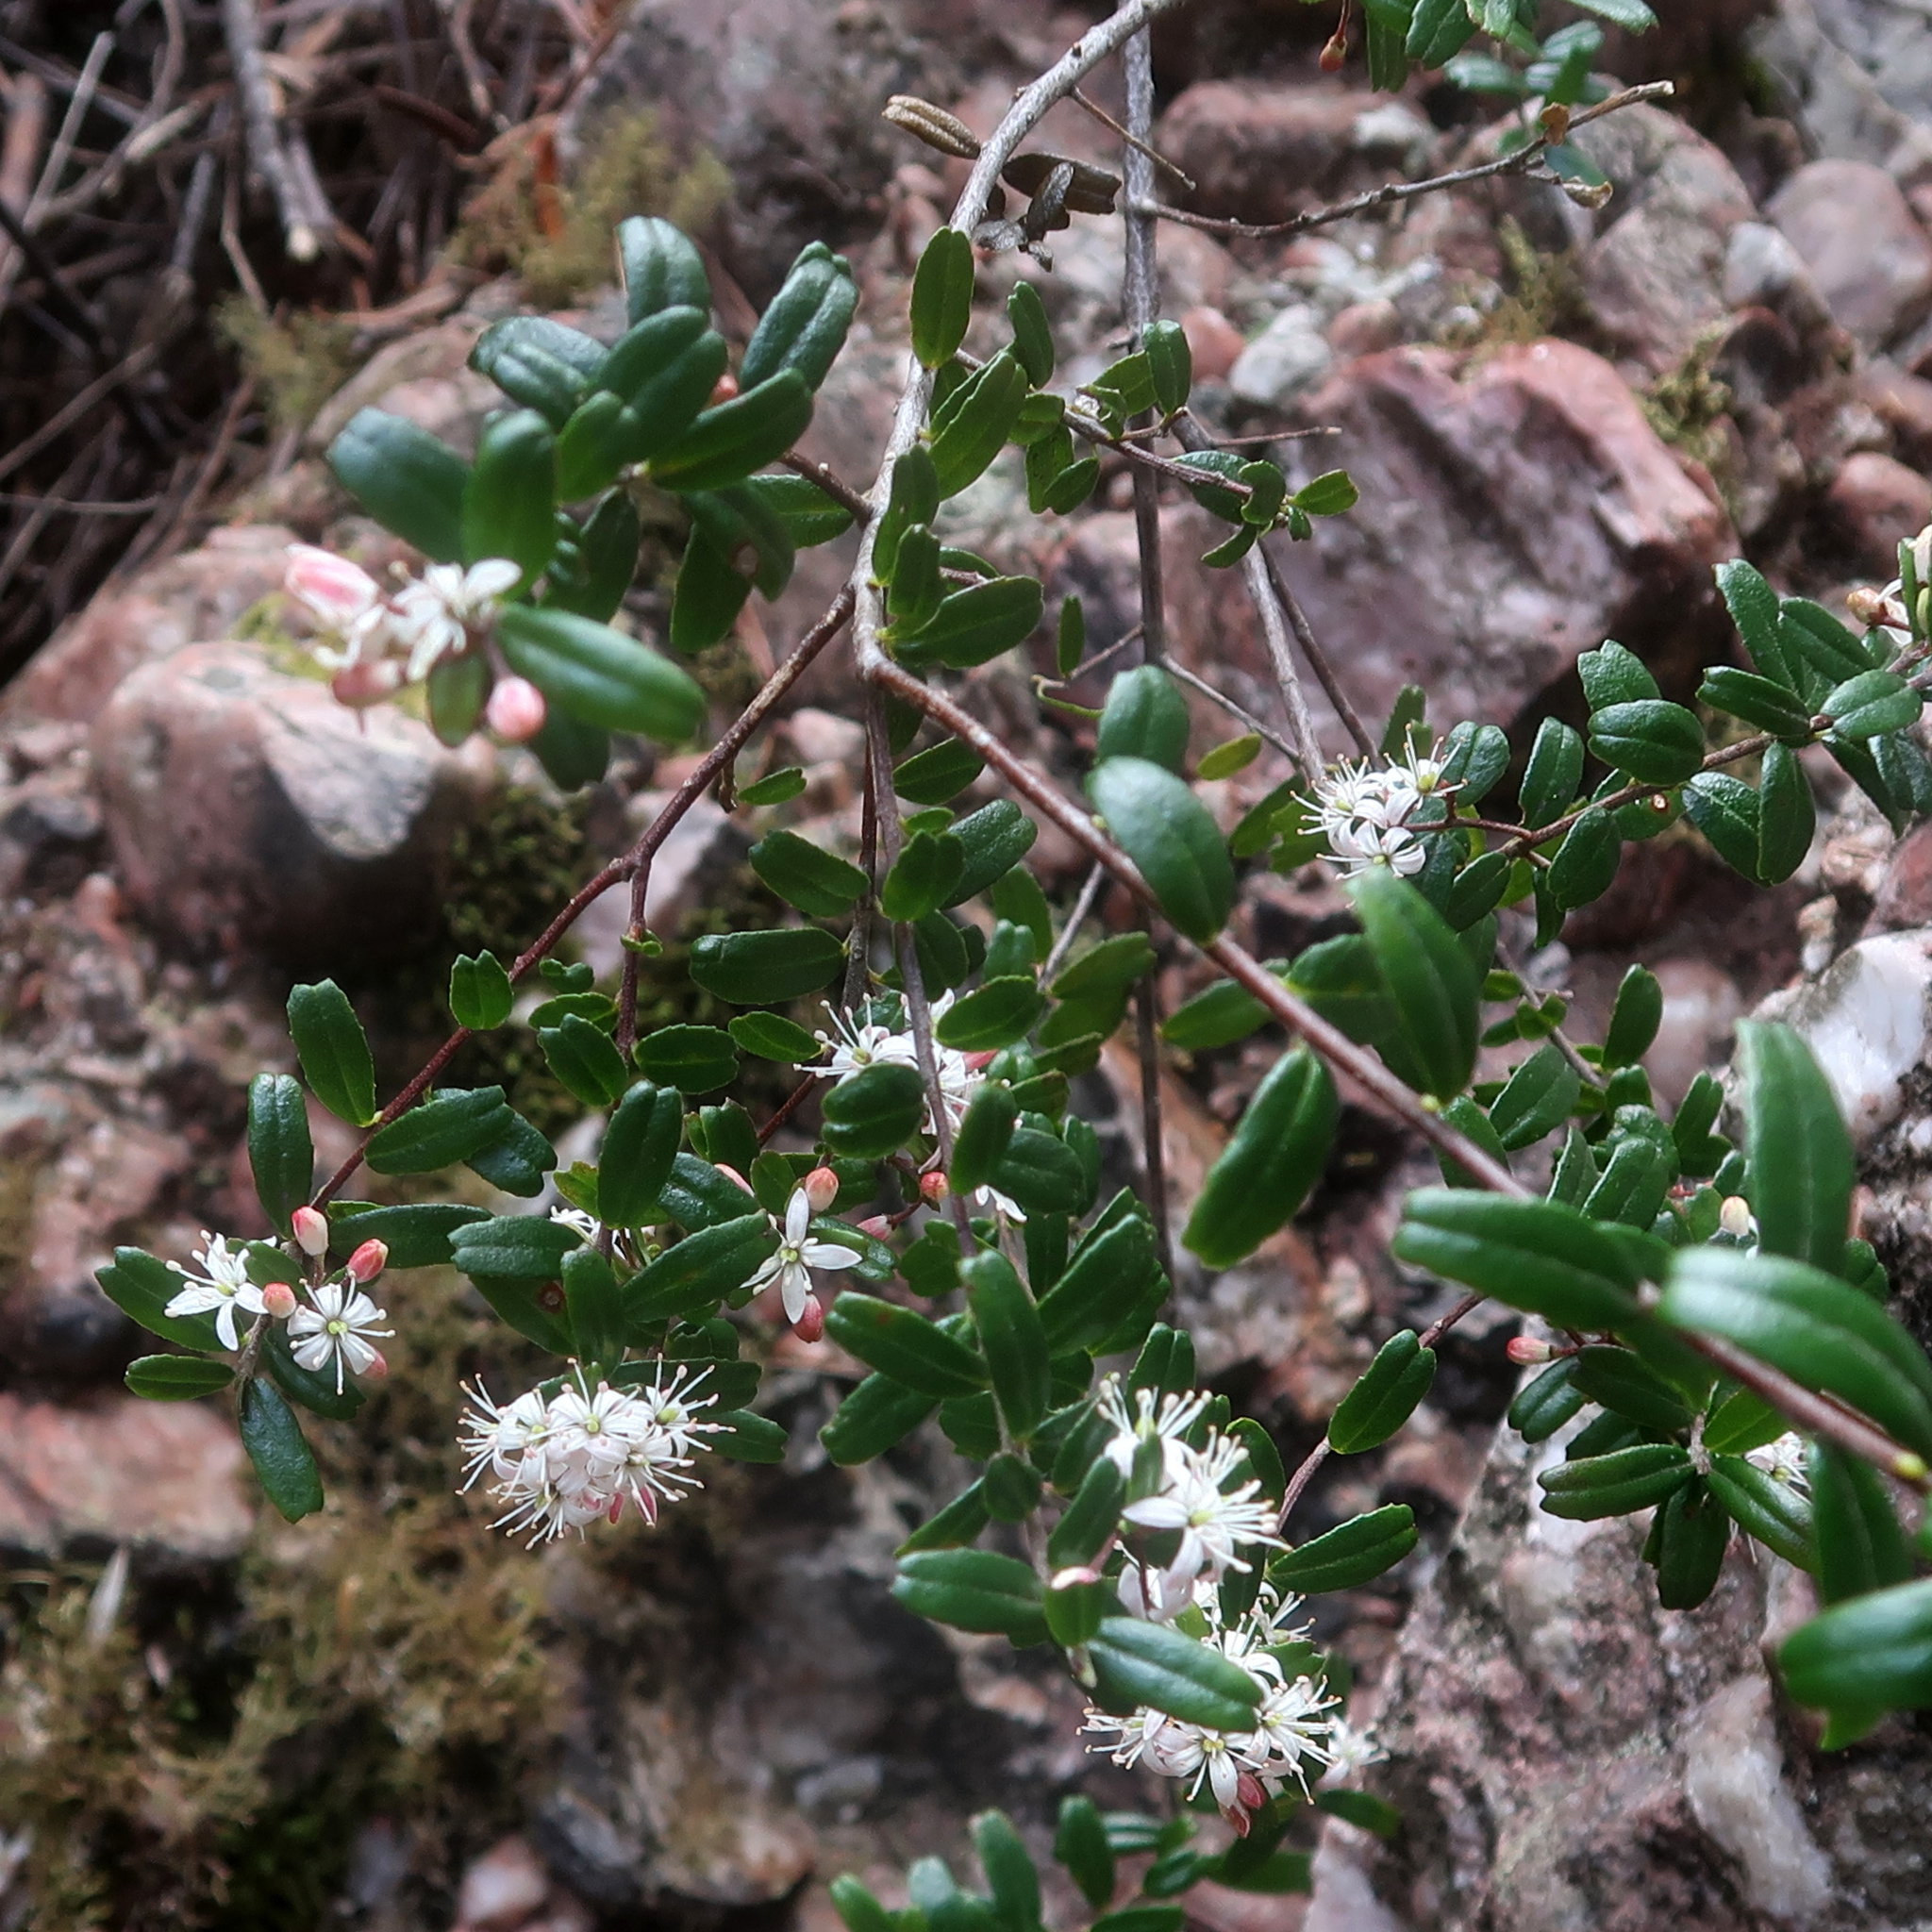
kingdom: Plantae
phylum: Tracheophyta
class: Magnoliopsida
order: Sapindales
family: Rutaceae
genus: Leionema
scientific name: Leionema bilobum
